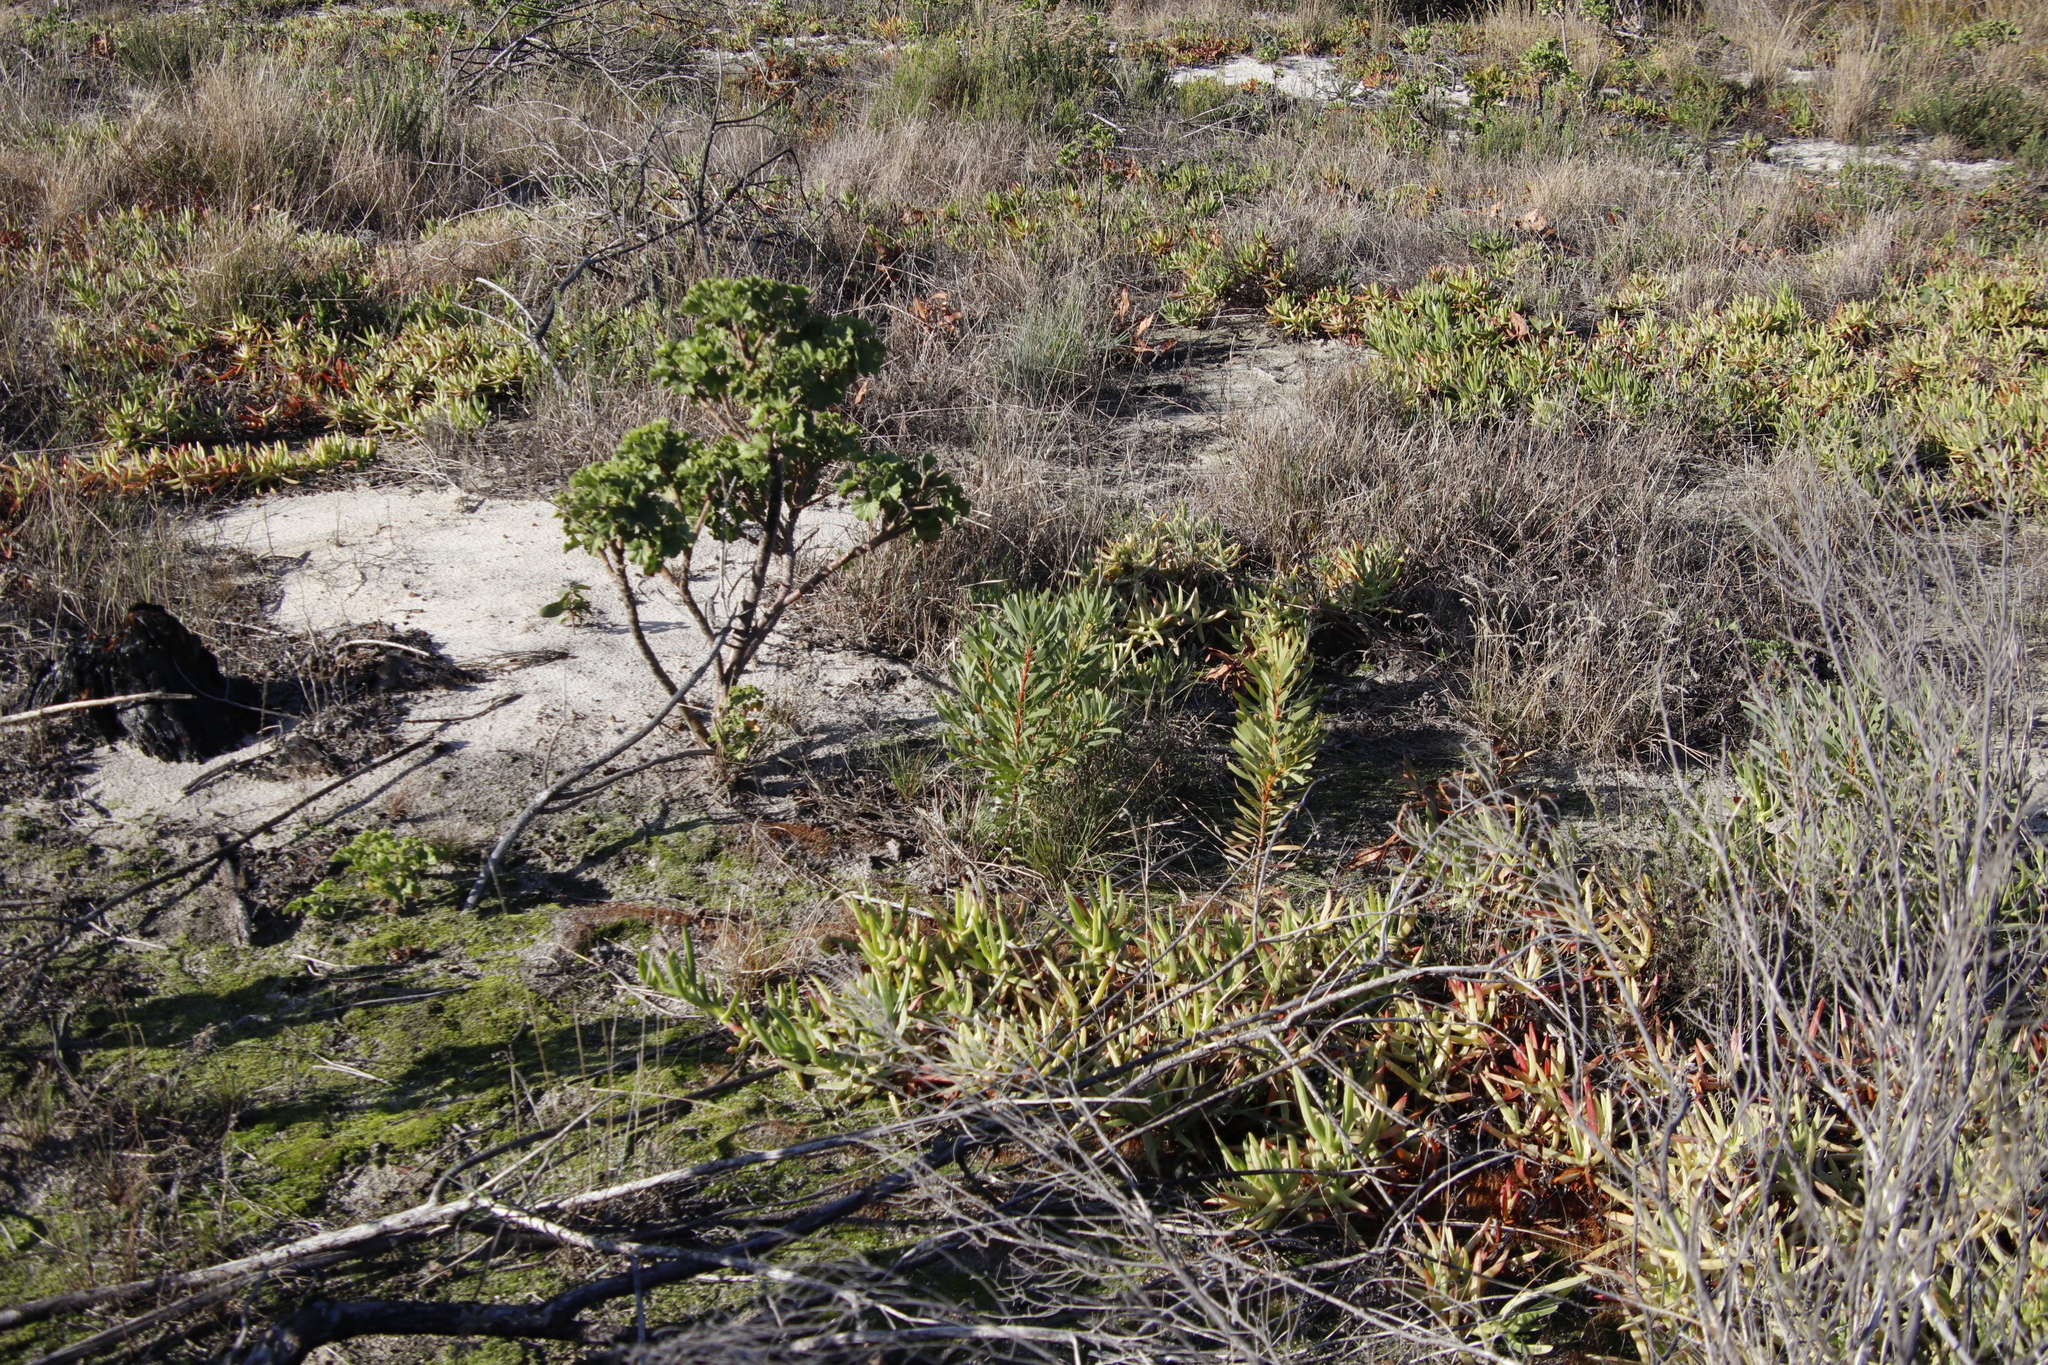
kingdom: Plantae
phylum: Tracheophyta
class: Magnoliopsida
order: Proteales
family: Proteaceae
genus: Protea
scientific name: Protea repens
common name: Sugarbush
